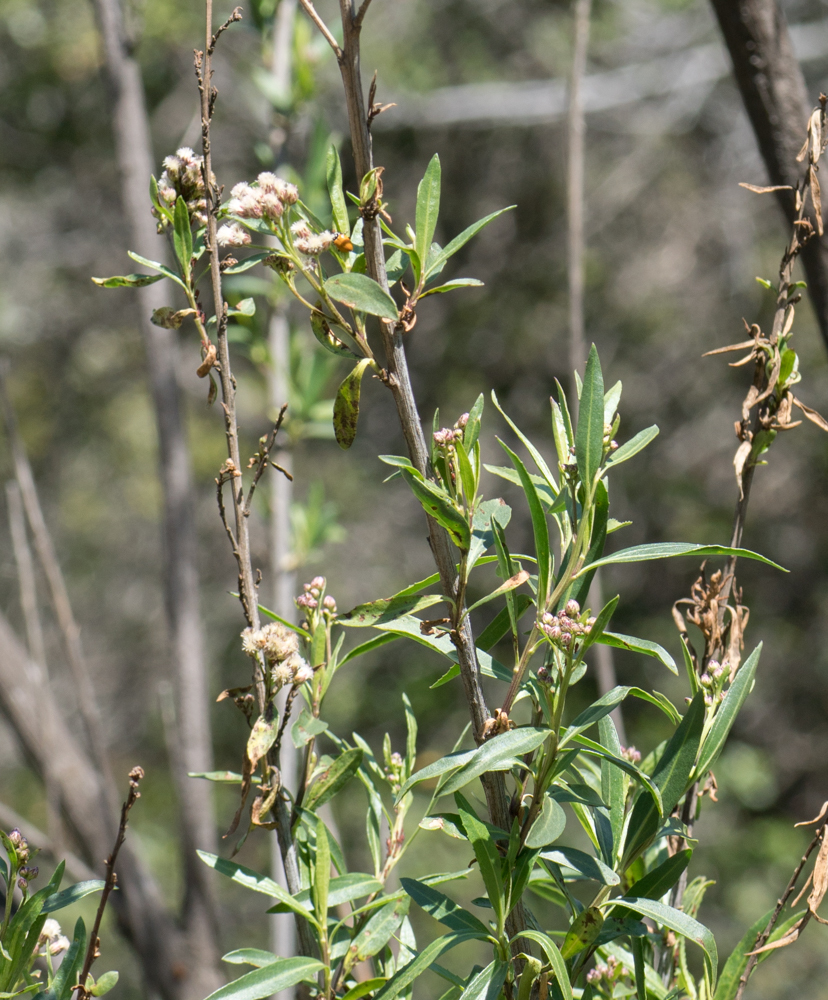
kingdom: Plantae
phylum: Tracheophyta
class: Magnoliopsida
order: Asterales
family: Asteraceae
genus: Baccharis
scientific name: Baccharis salicifolia
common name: Sticky baccharis
